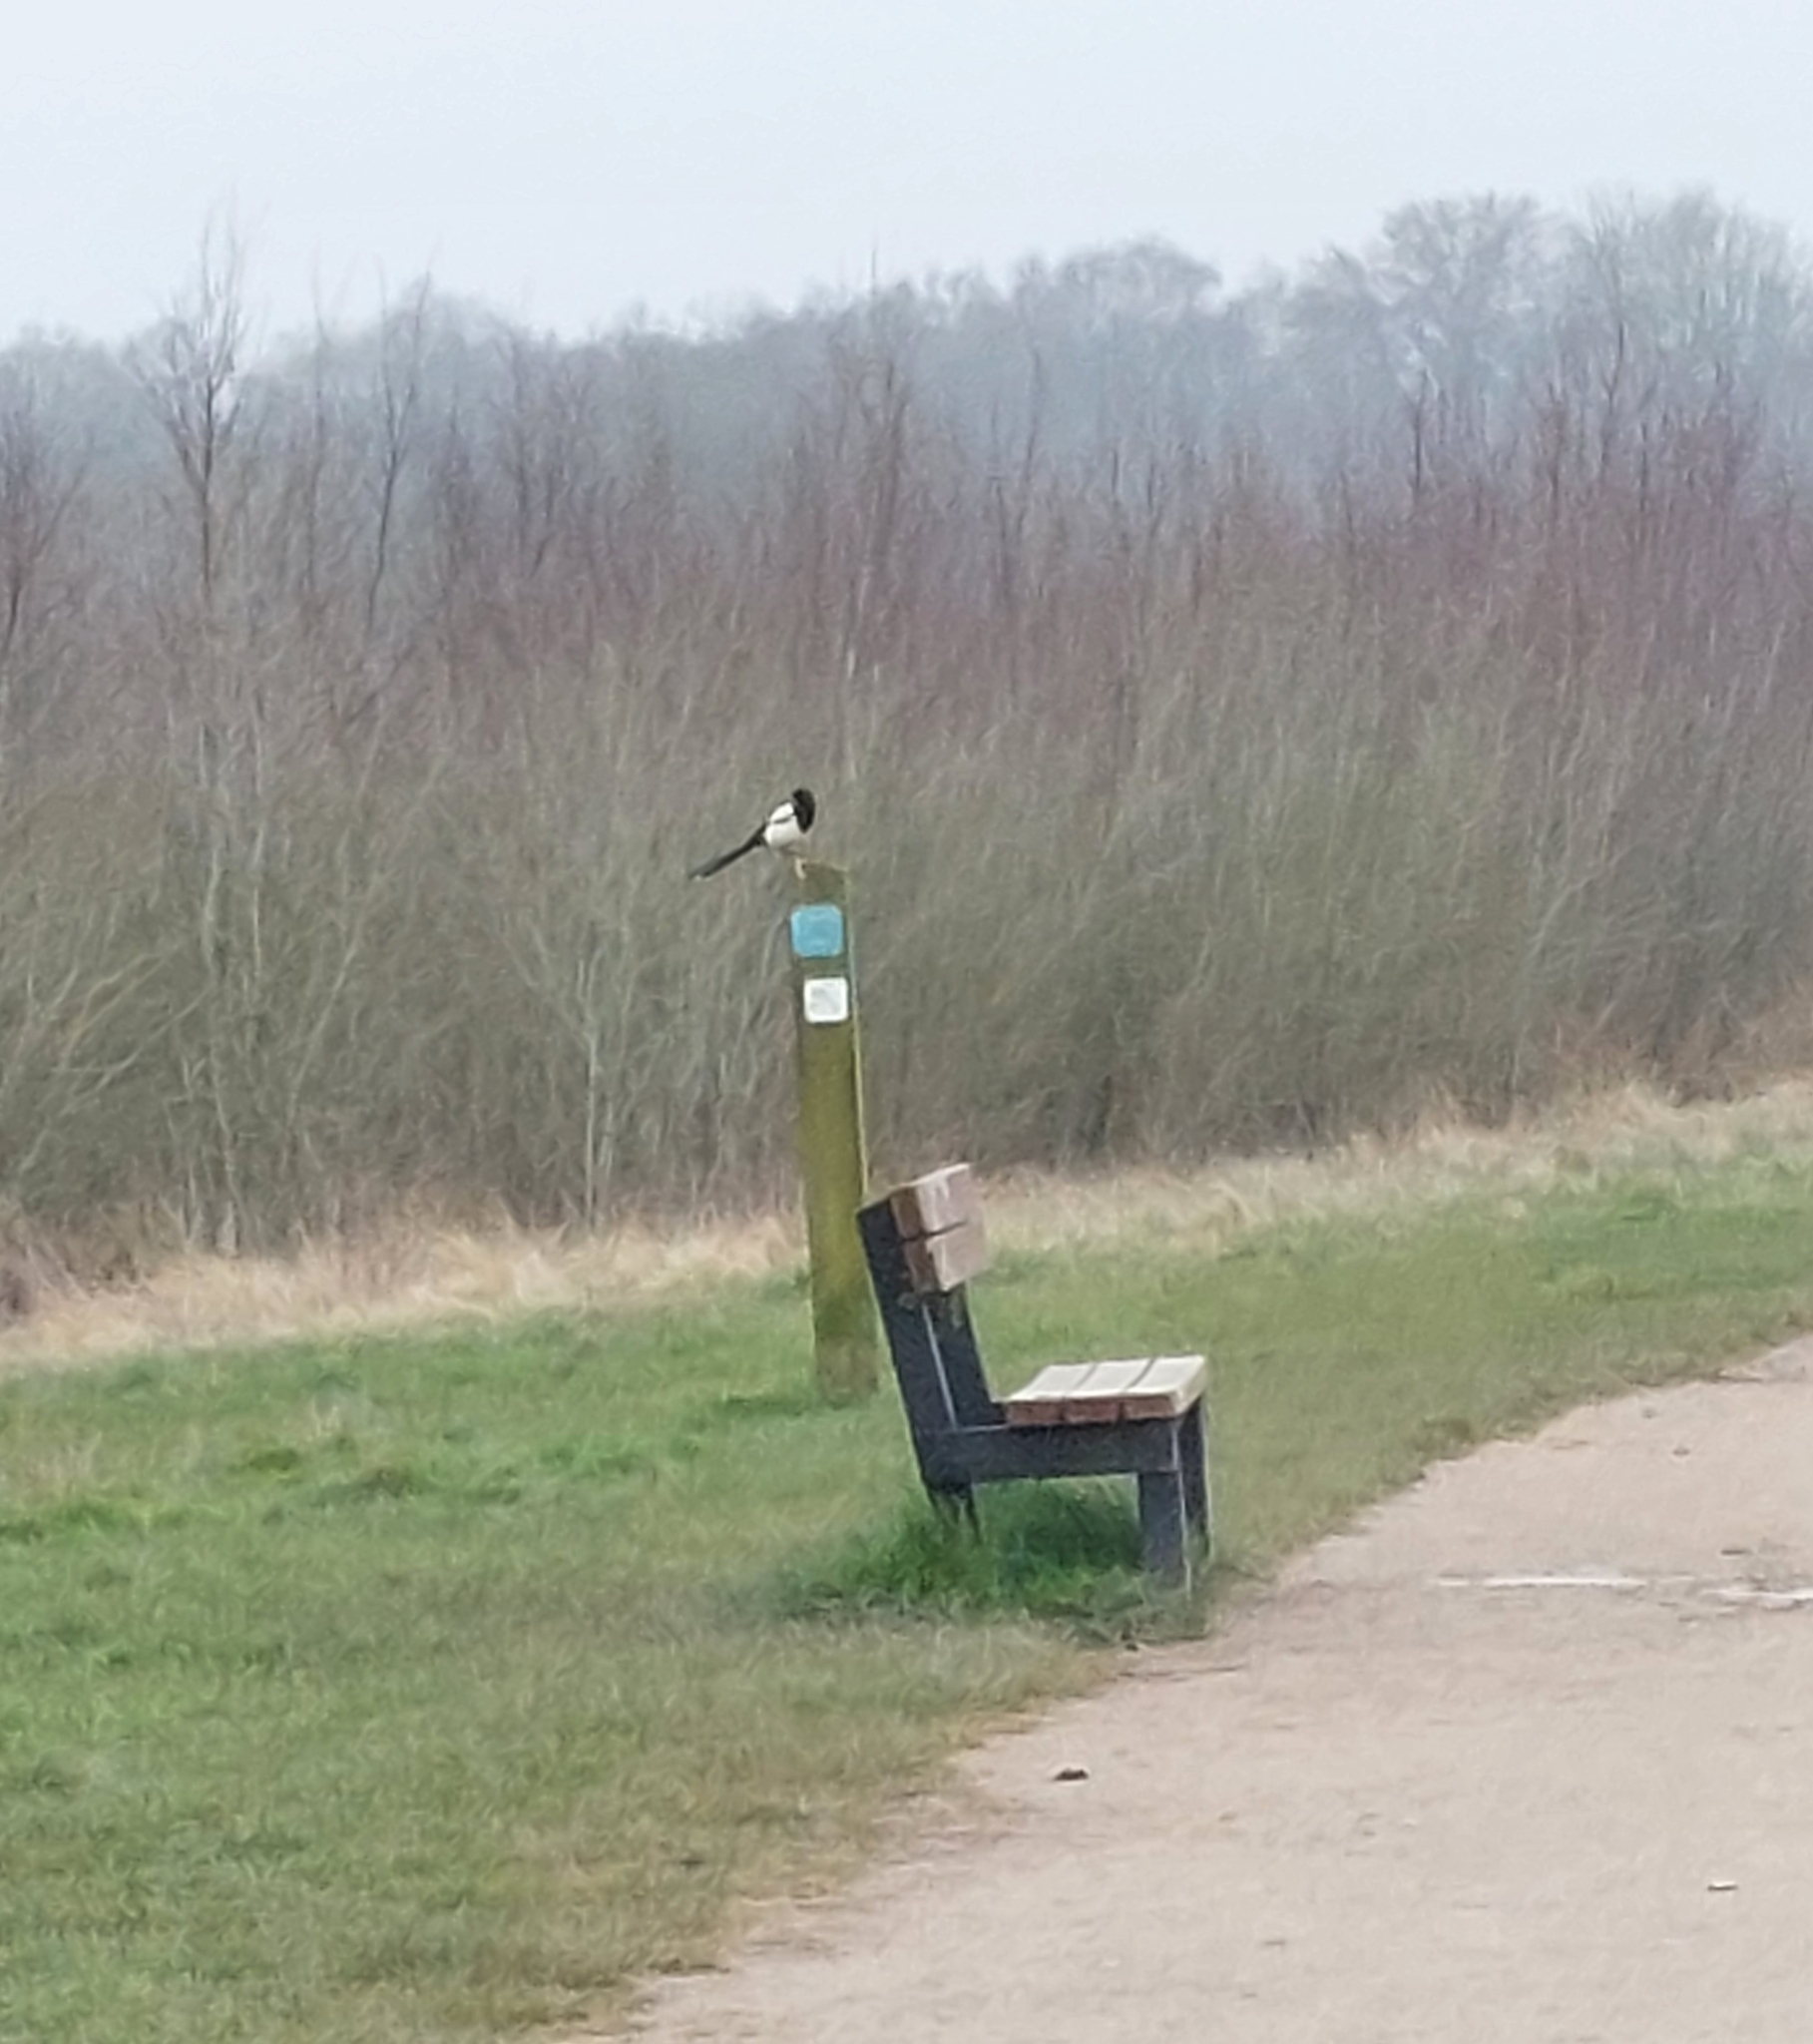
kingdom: Animalia
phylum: Chordata
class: Aves
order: Passeriformes
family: Corvidae
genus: Pica
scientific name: Pica pica
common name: Eurasian magpie
